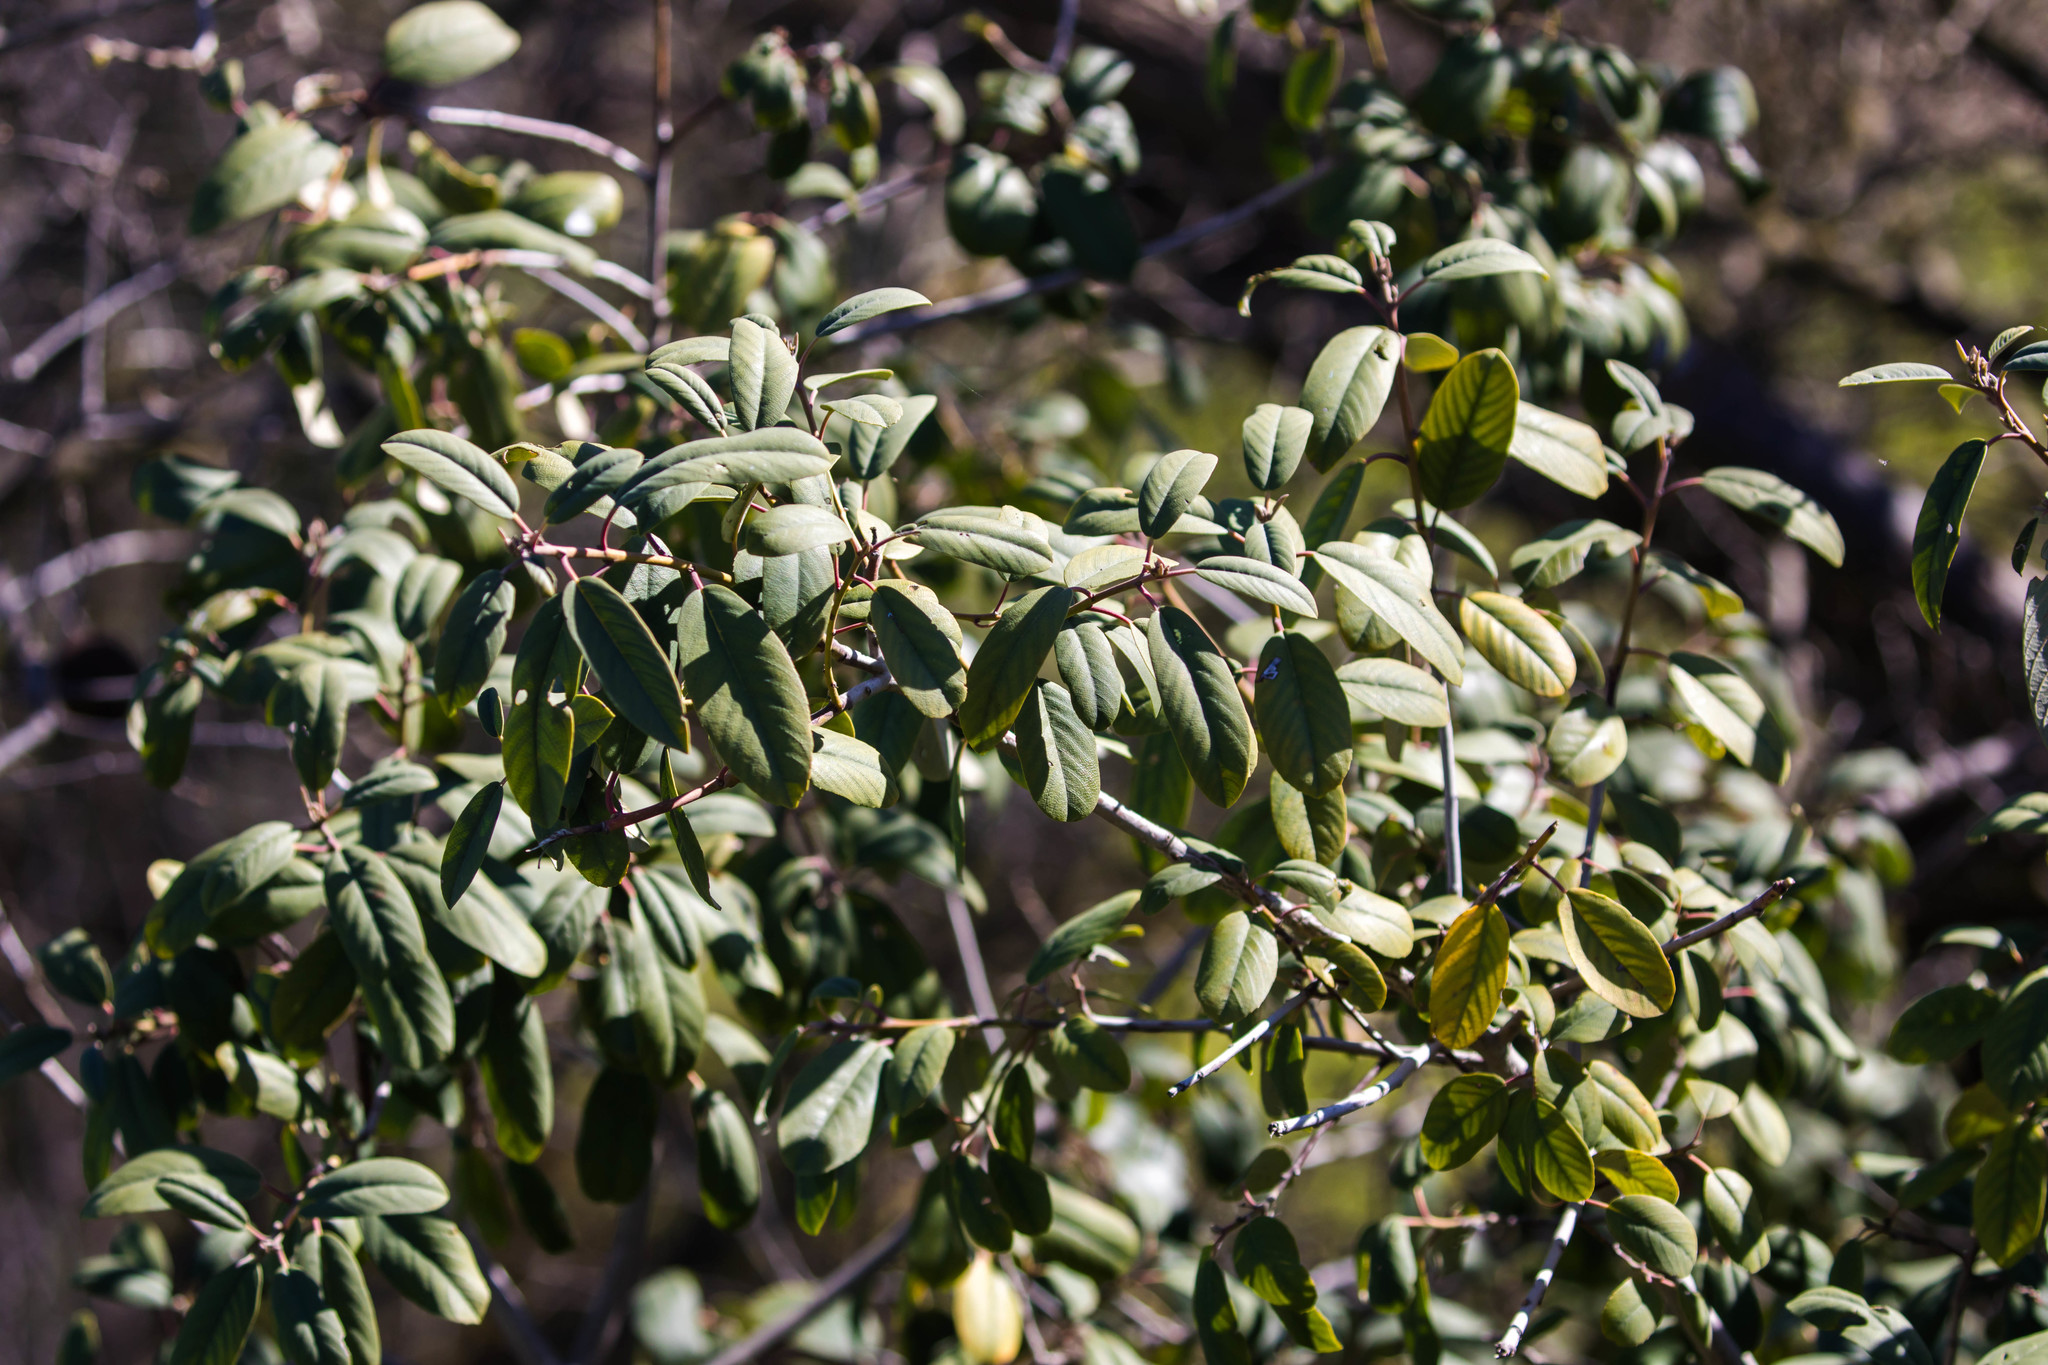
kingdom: Plantae
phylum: Tracheophyta
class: Magnoliopsida
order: Rosales
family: Rhamnaceae
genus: Frangula
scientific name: Frangula californica
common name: California buckthorn
